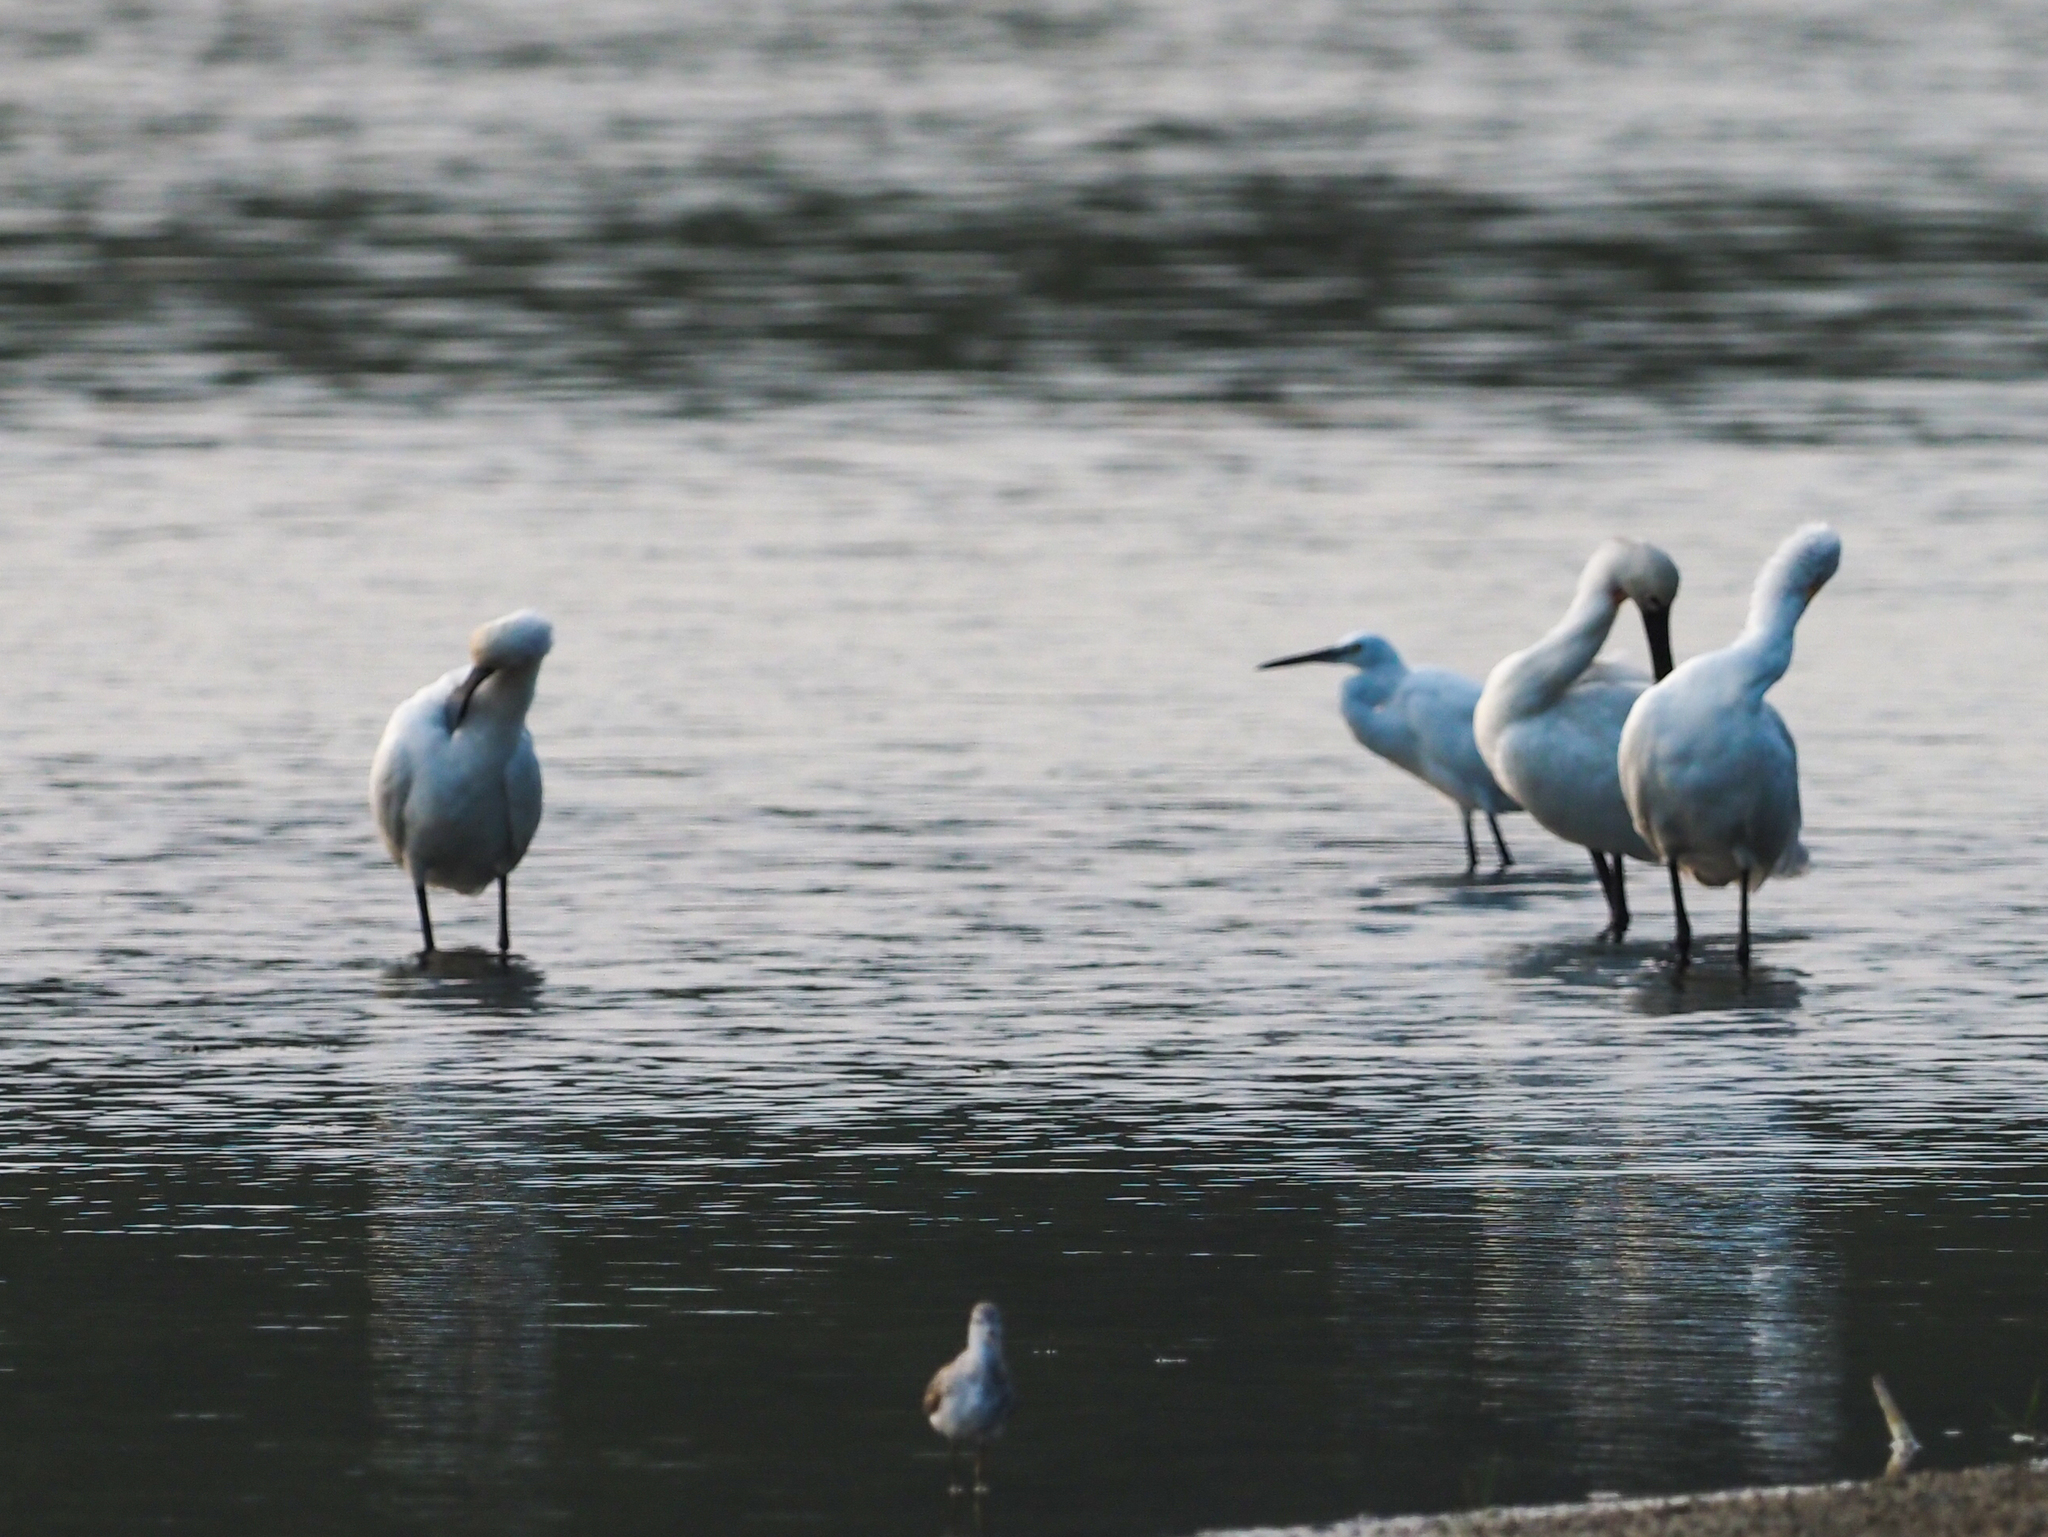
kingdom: Animalia
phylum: Chordata
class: Aves
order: Pelecaniformes
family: Threskiornithidae
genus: Platalea
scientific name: Platalea leucorodia
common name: Eurasian spoonbill
